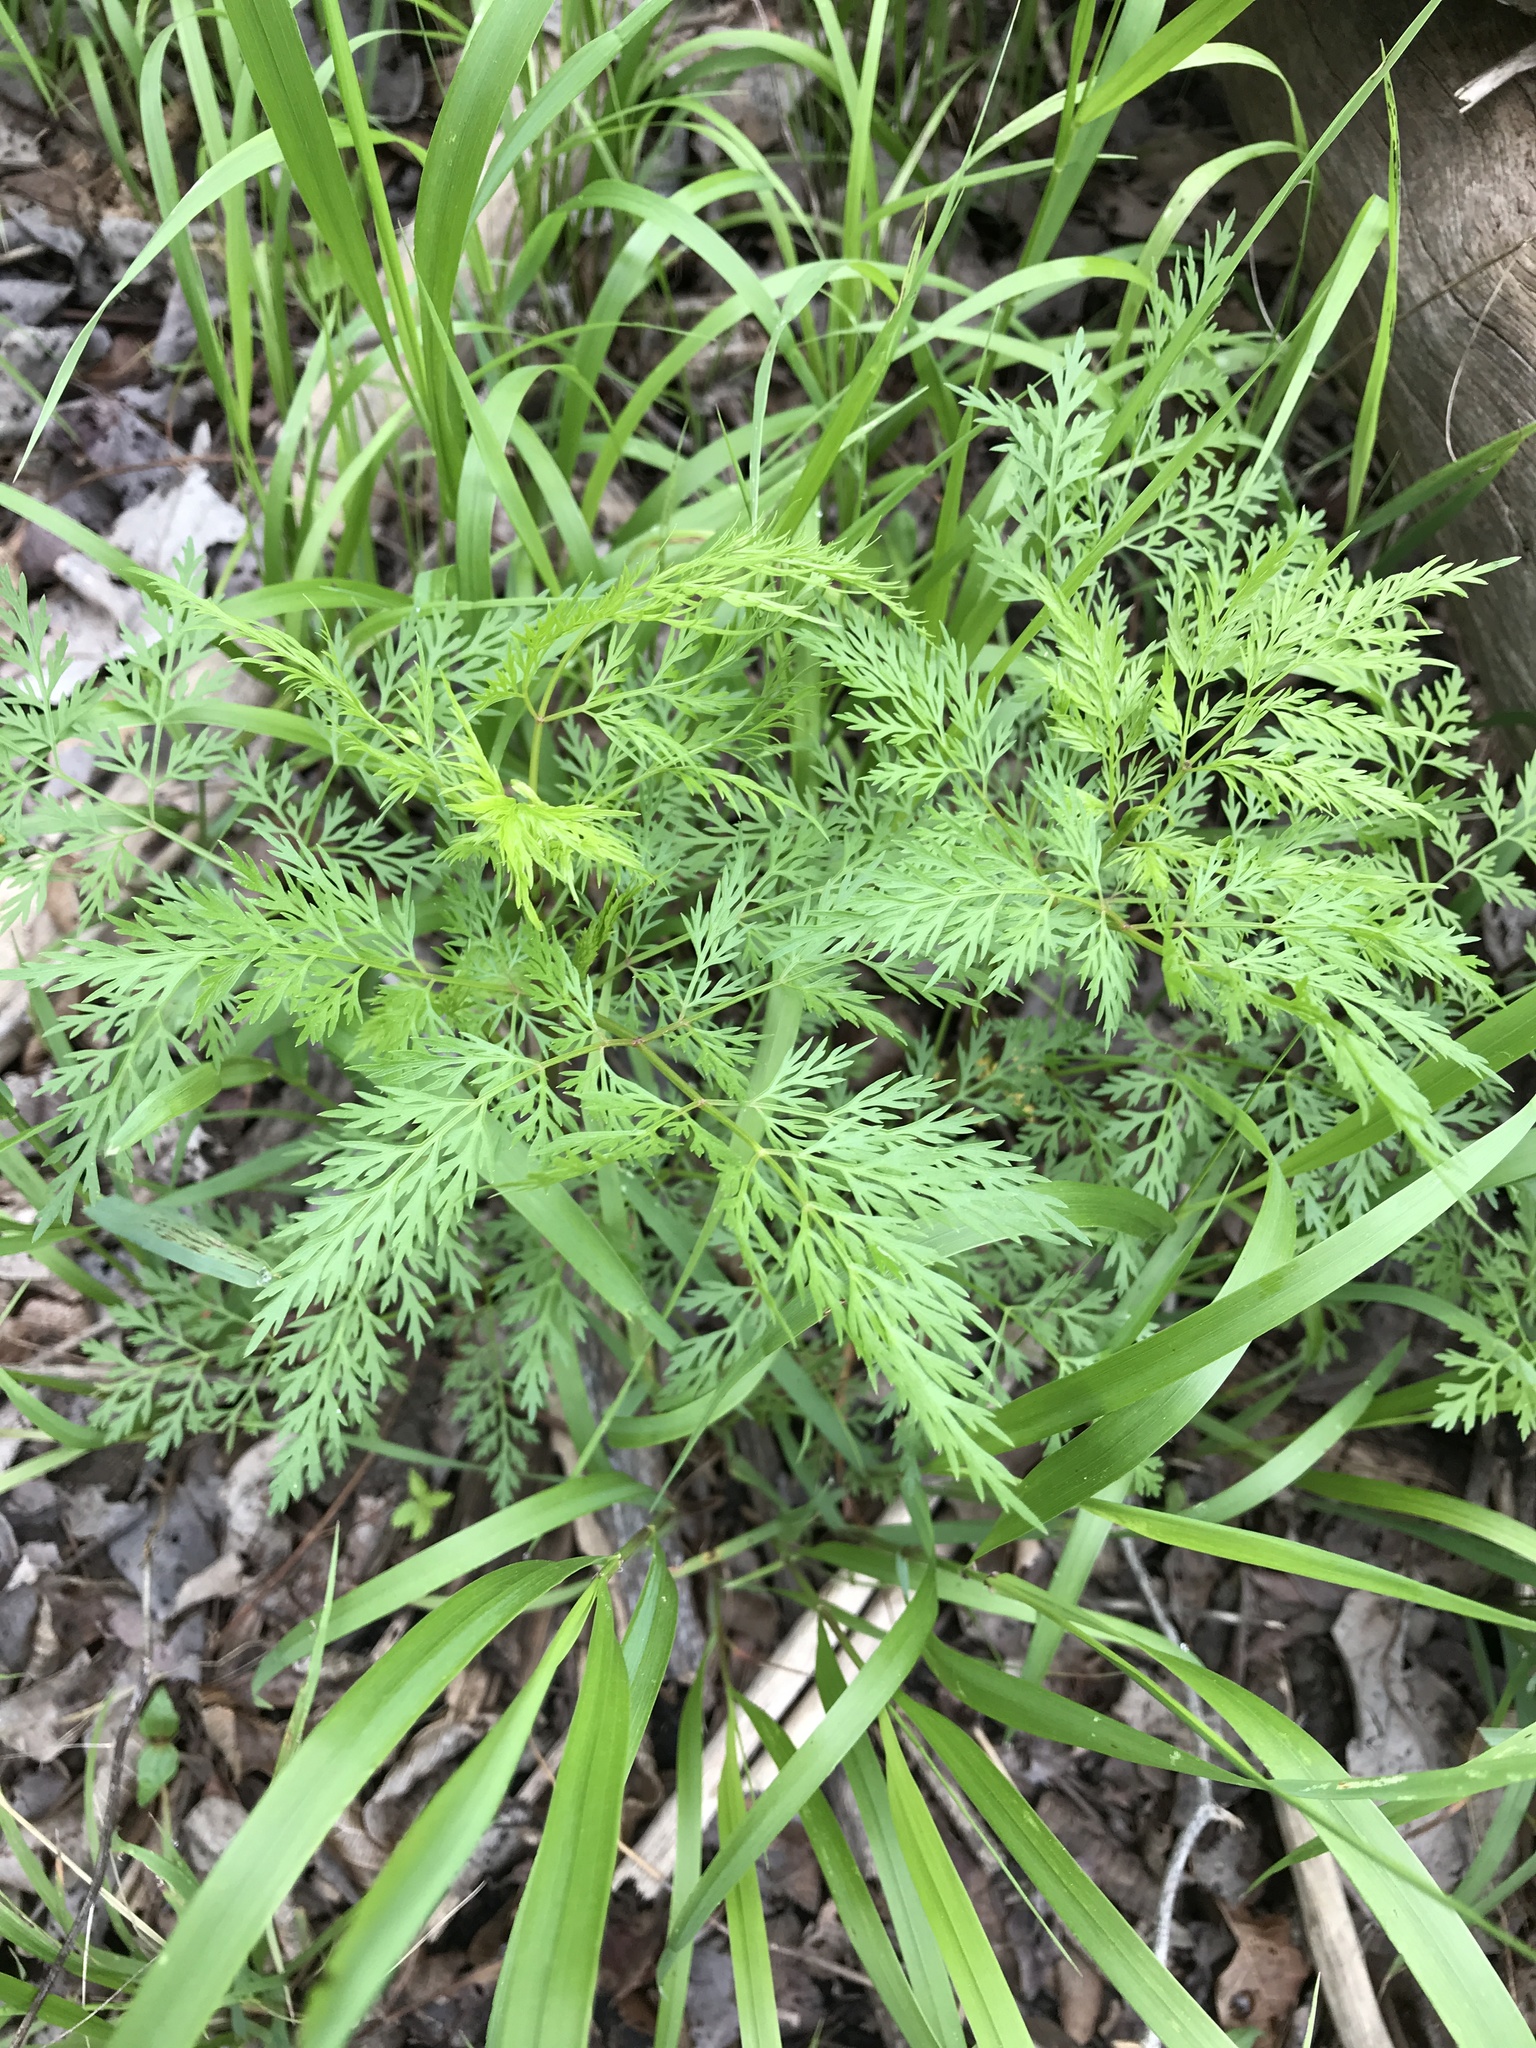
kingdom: Plantae
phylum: Tracheophyta
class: Magnoliopsida
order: Apiales
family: Apiaceae
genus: Trepocarpus
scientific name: Trepocarpus aethusae
